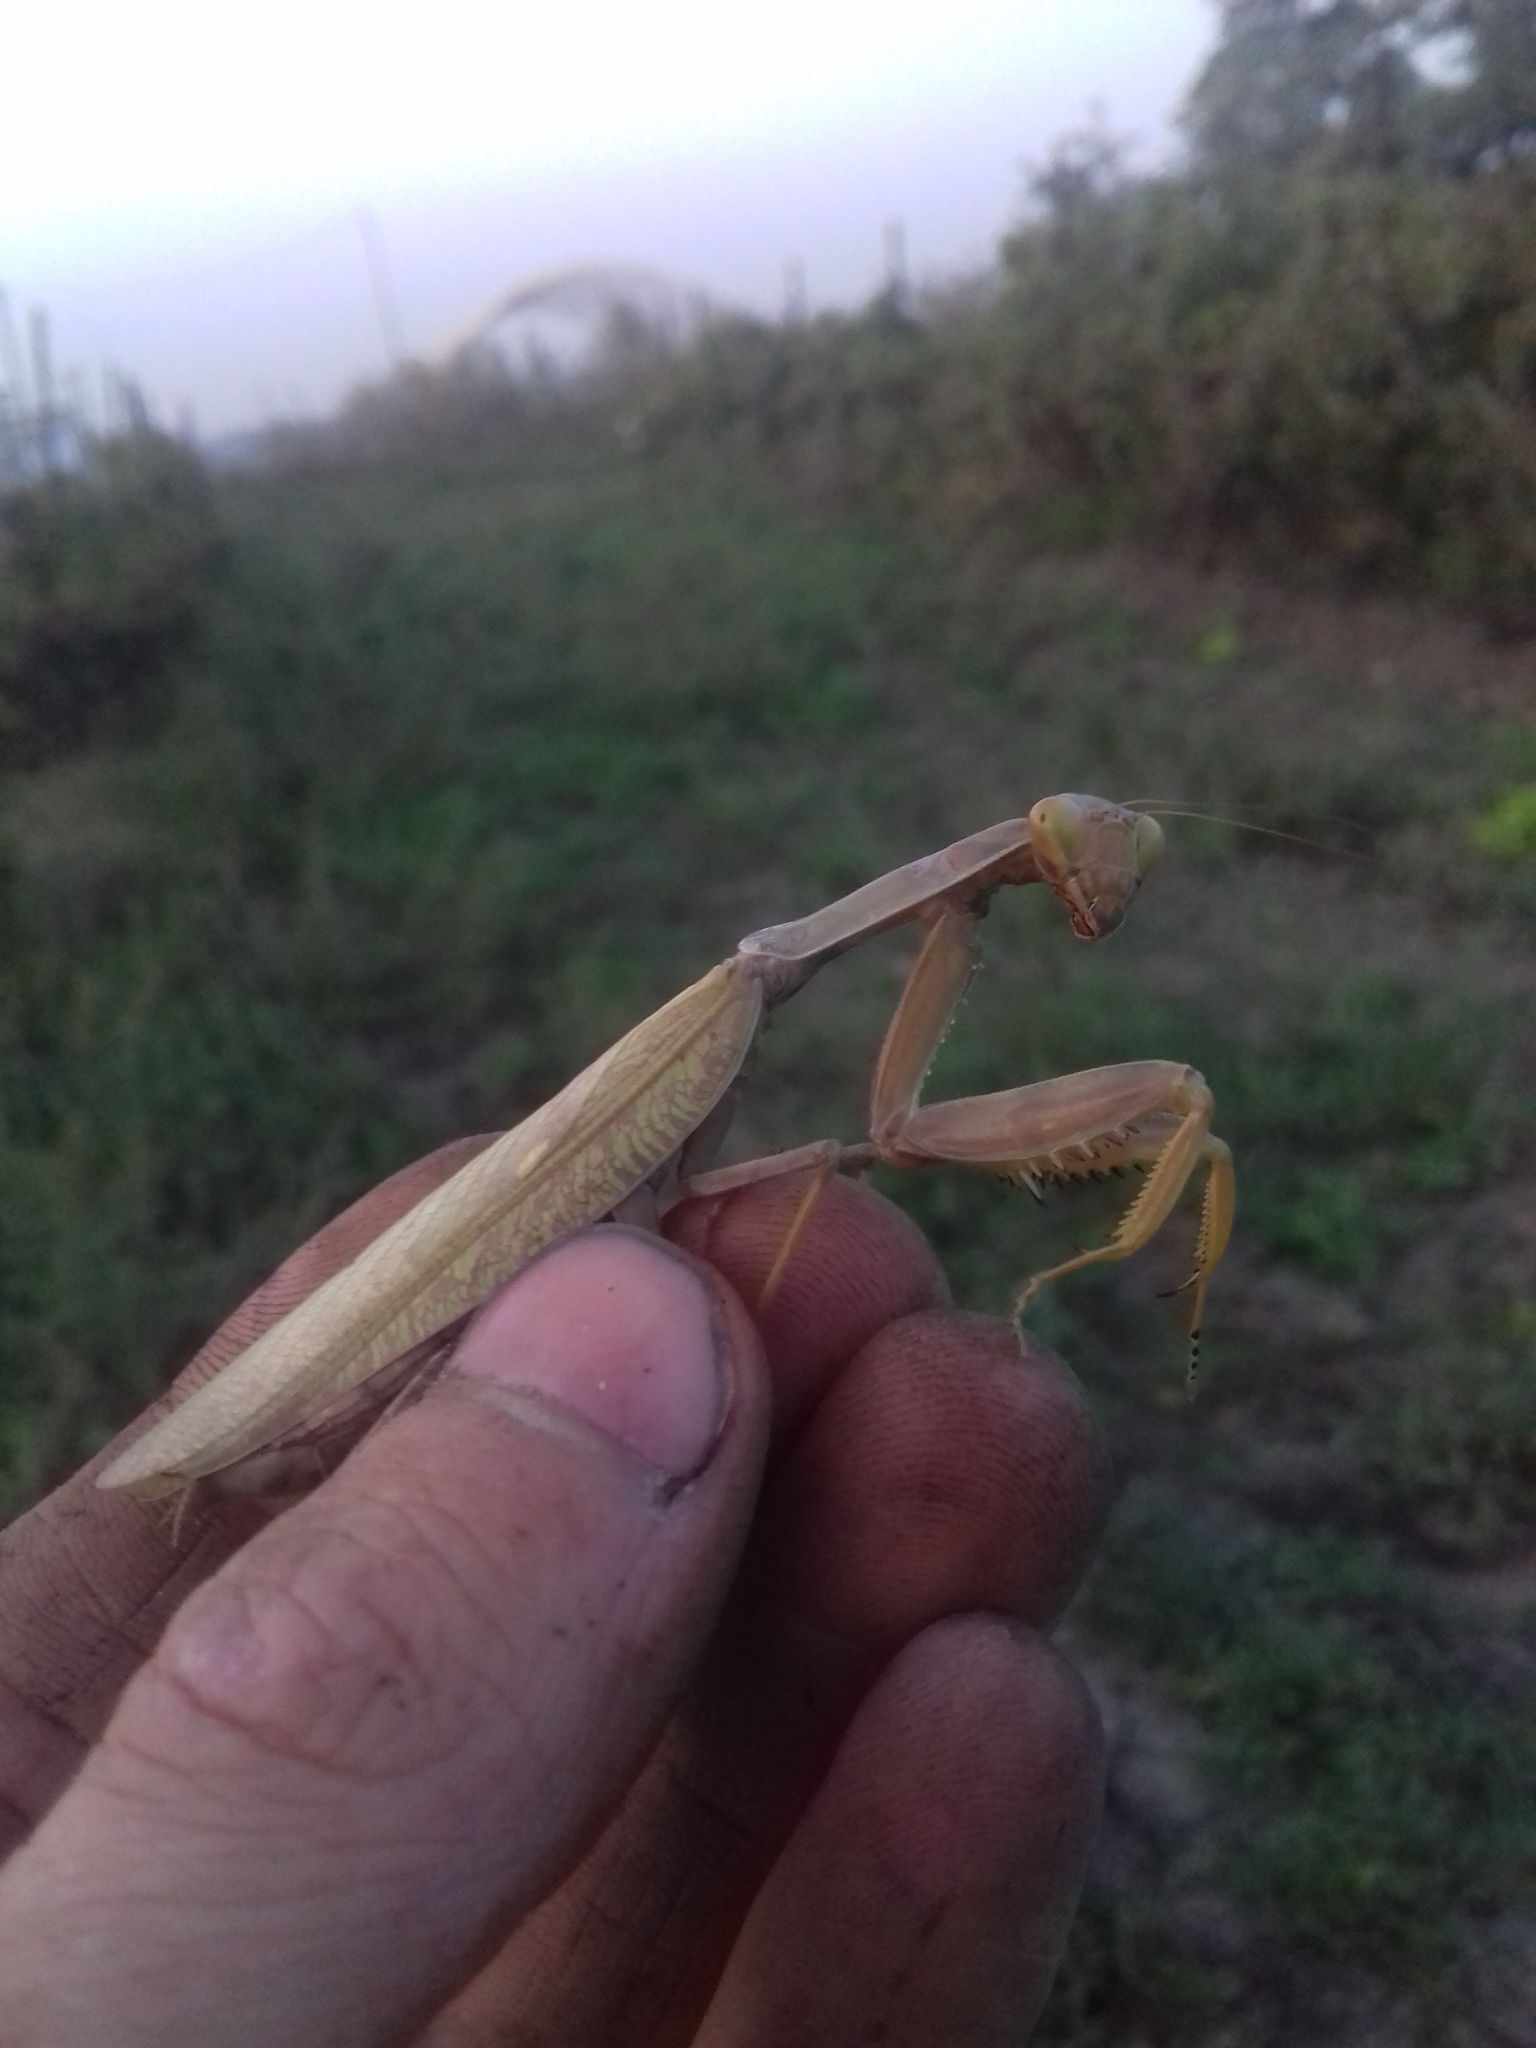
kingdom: Animalia
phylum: Arthropoda
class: Insecta
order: Mantodea
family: Mantidae
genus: Hierodula
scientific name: Hierodula transcaucasica
